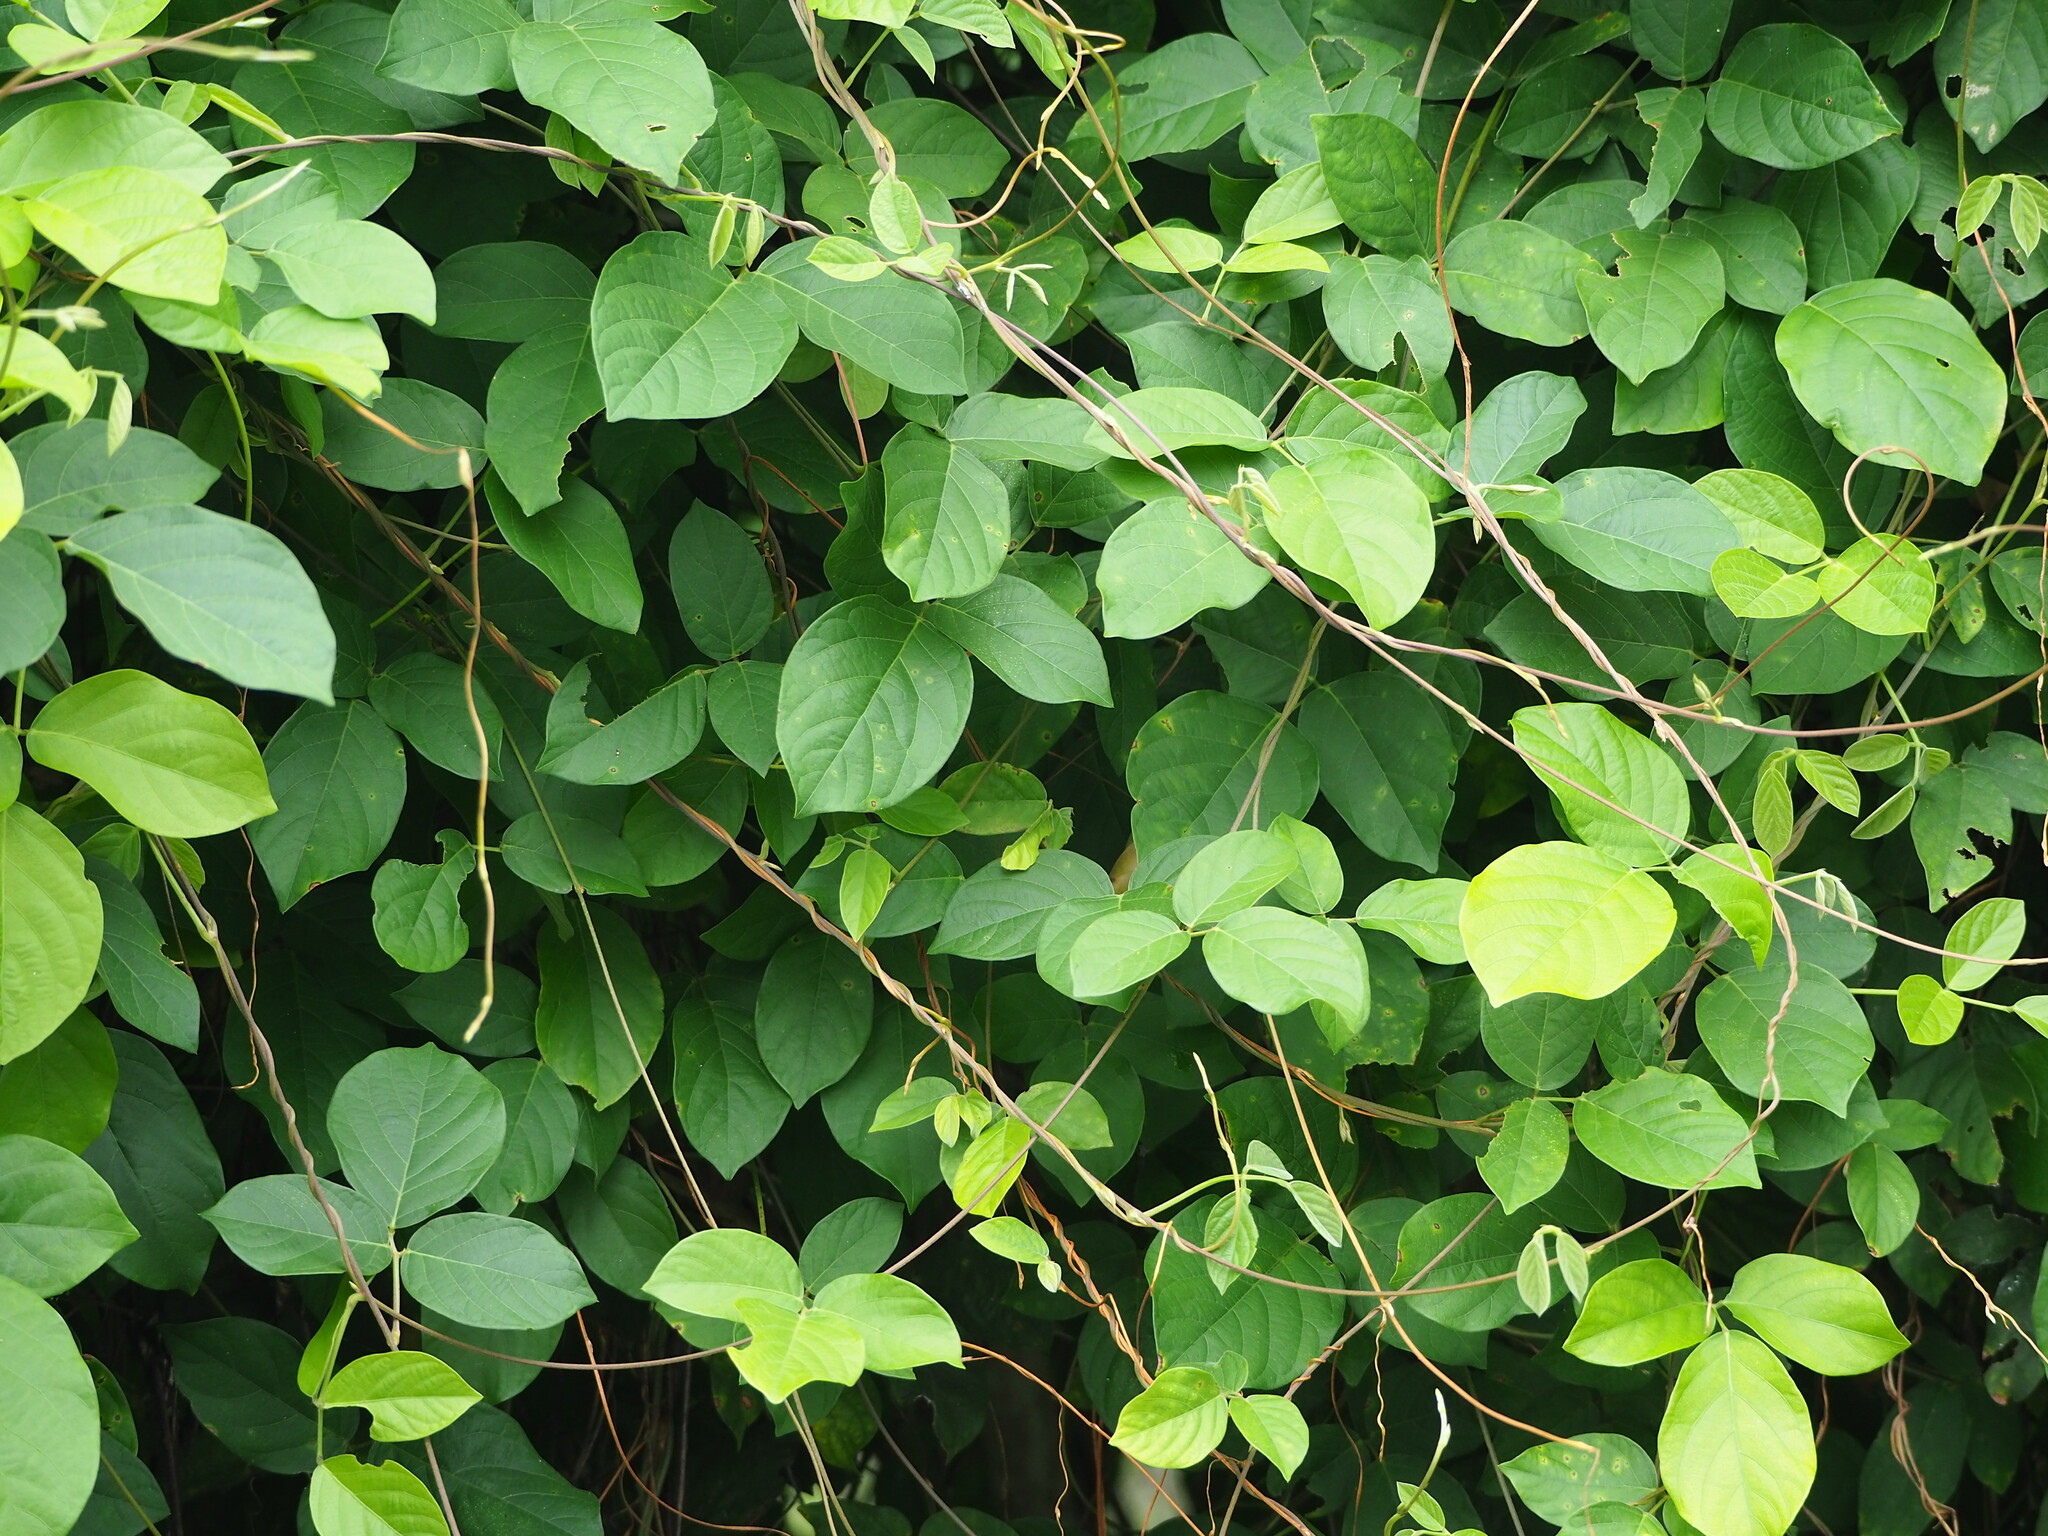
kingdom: Plantae
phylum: Tracheophyta
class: Magnoliopsida
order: Fabales
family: Fabaceae
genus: Pueraria
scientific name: Pueraria montana
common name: Kudzu
